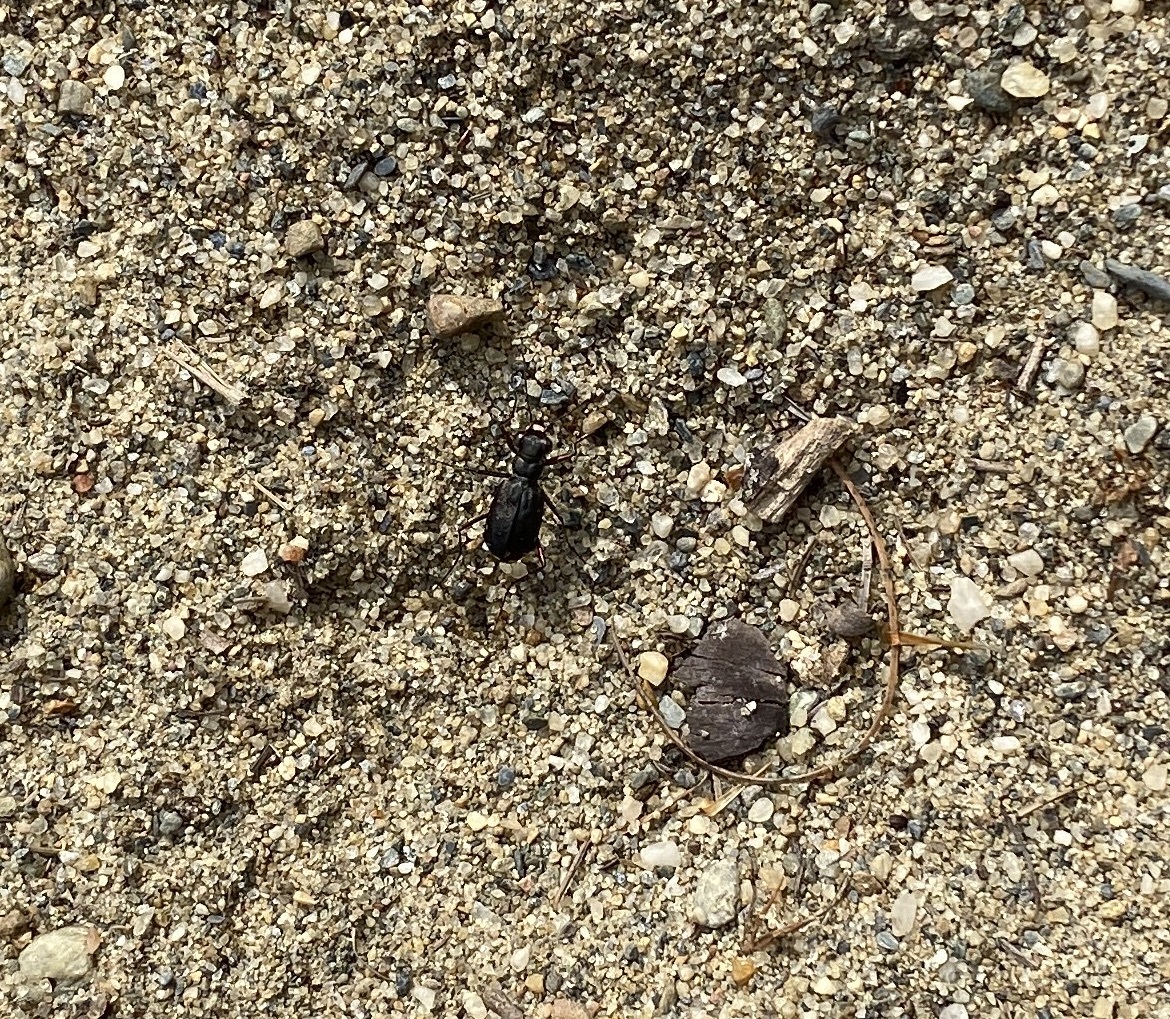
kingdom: Animalia
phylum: Arthropoda
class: Insecta
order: Coleoptera
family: Carabidae
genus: Cicindela
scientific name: Cicindela punctulata
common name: Punctured tiger beetle
